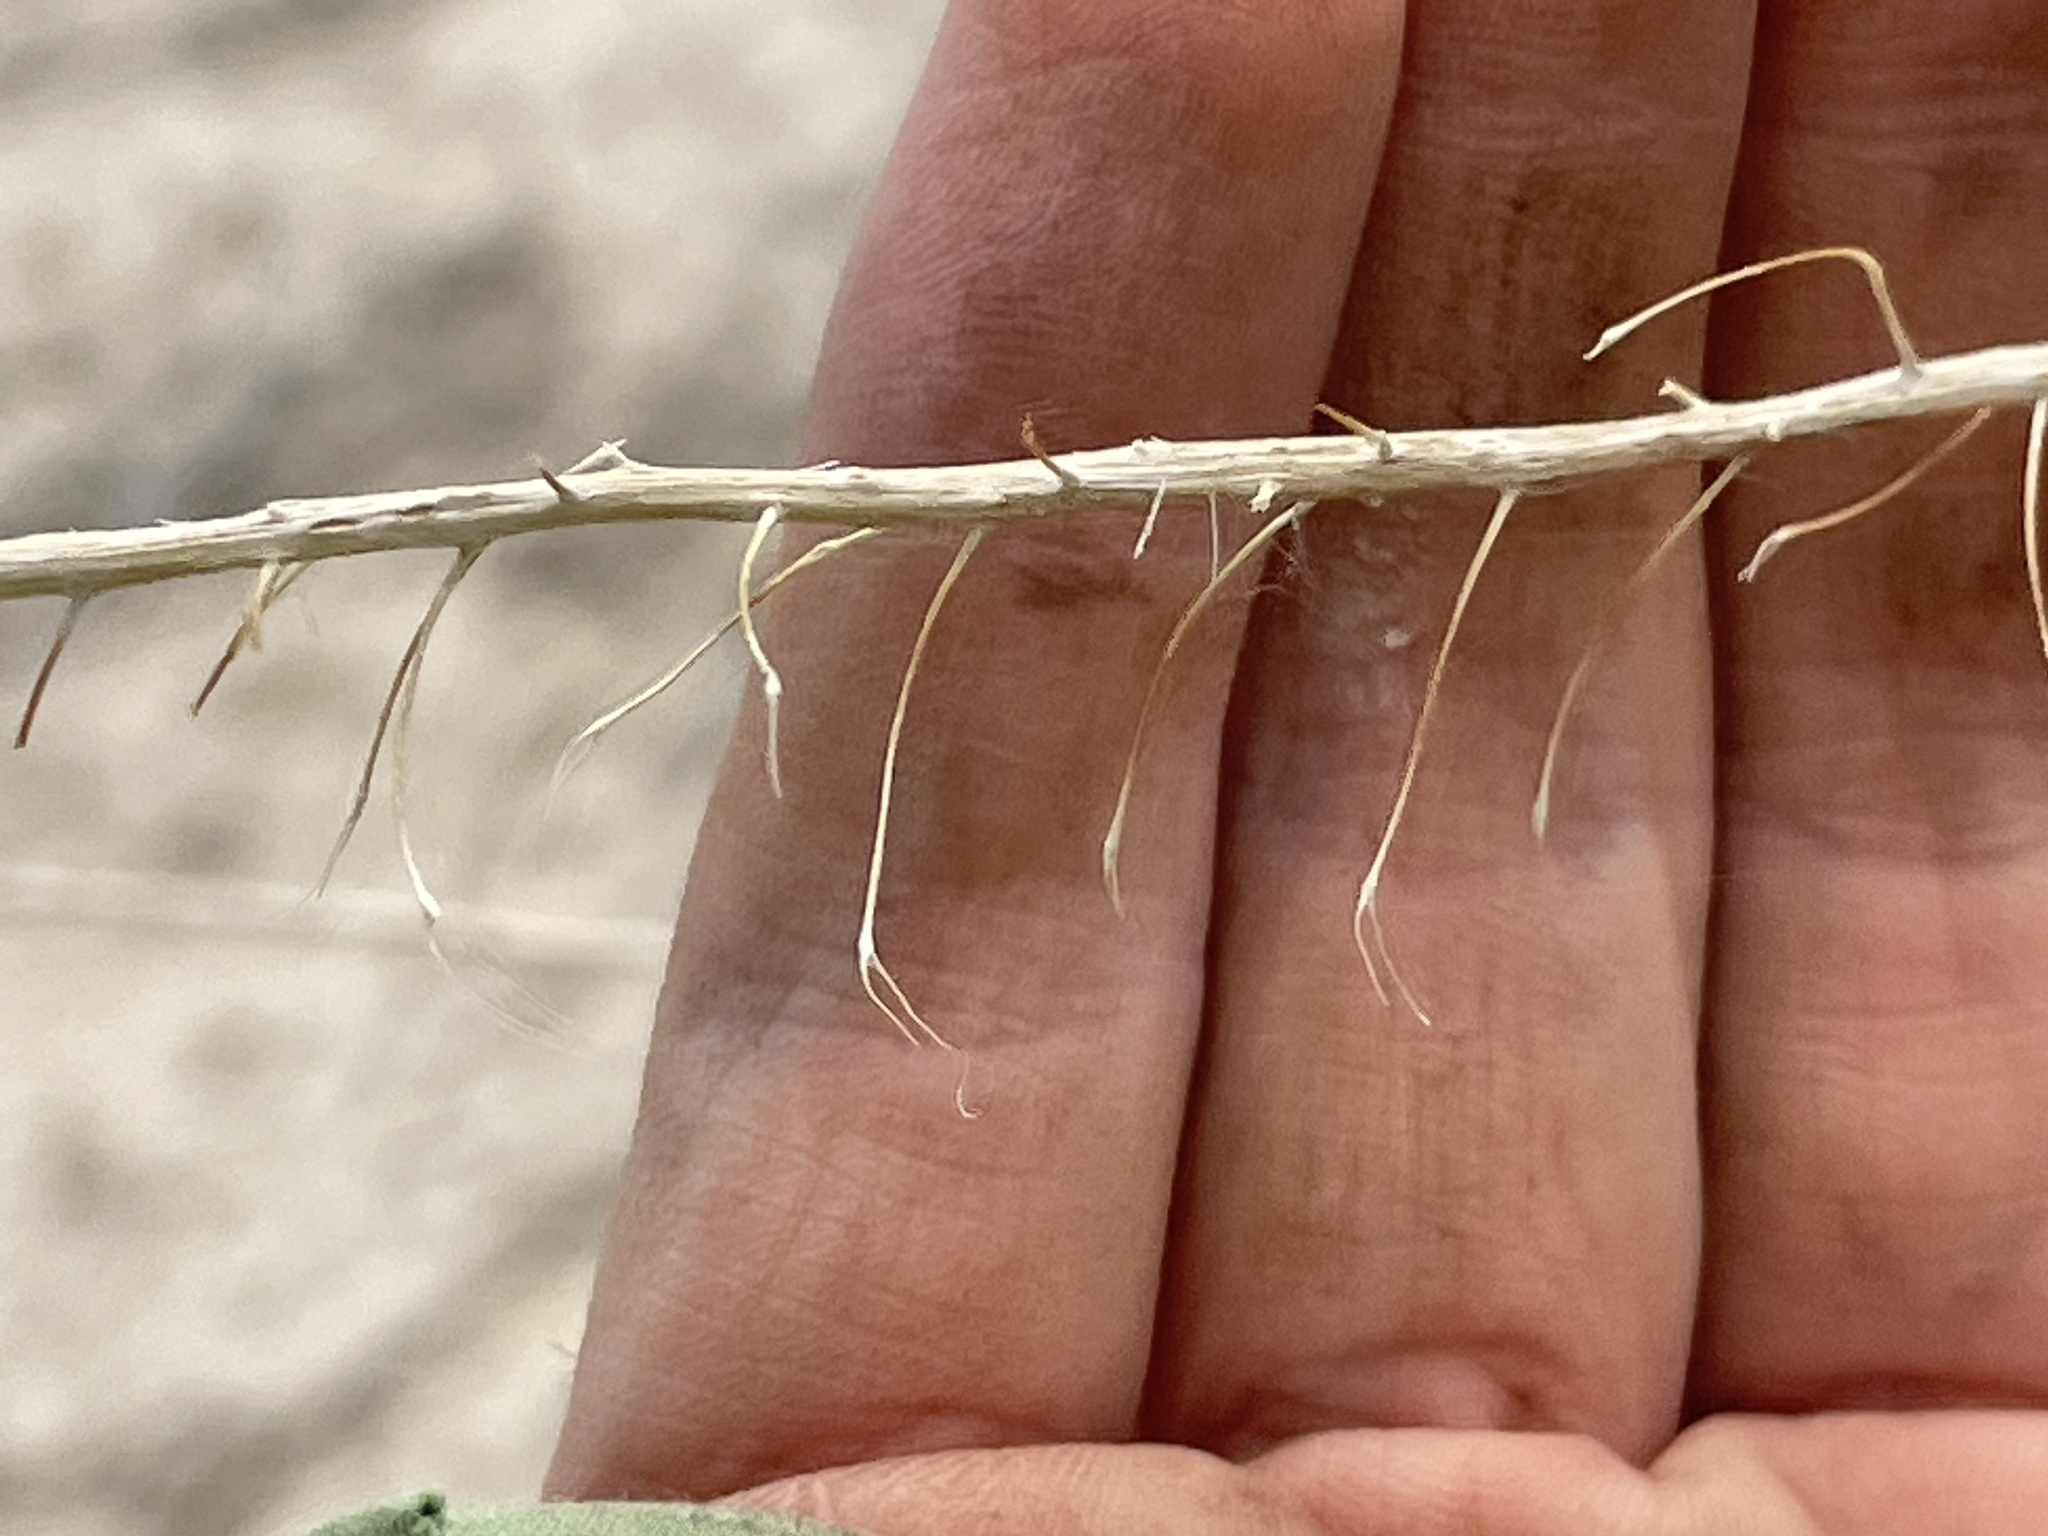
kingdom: Plantae
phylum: Tracheophyta
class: Magnoliopsida
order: Brassicales
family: Brassicaceae
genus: Sisymbrium
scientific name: Sisymbrium altissimum
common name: Tall rocket
